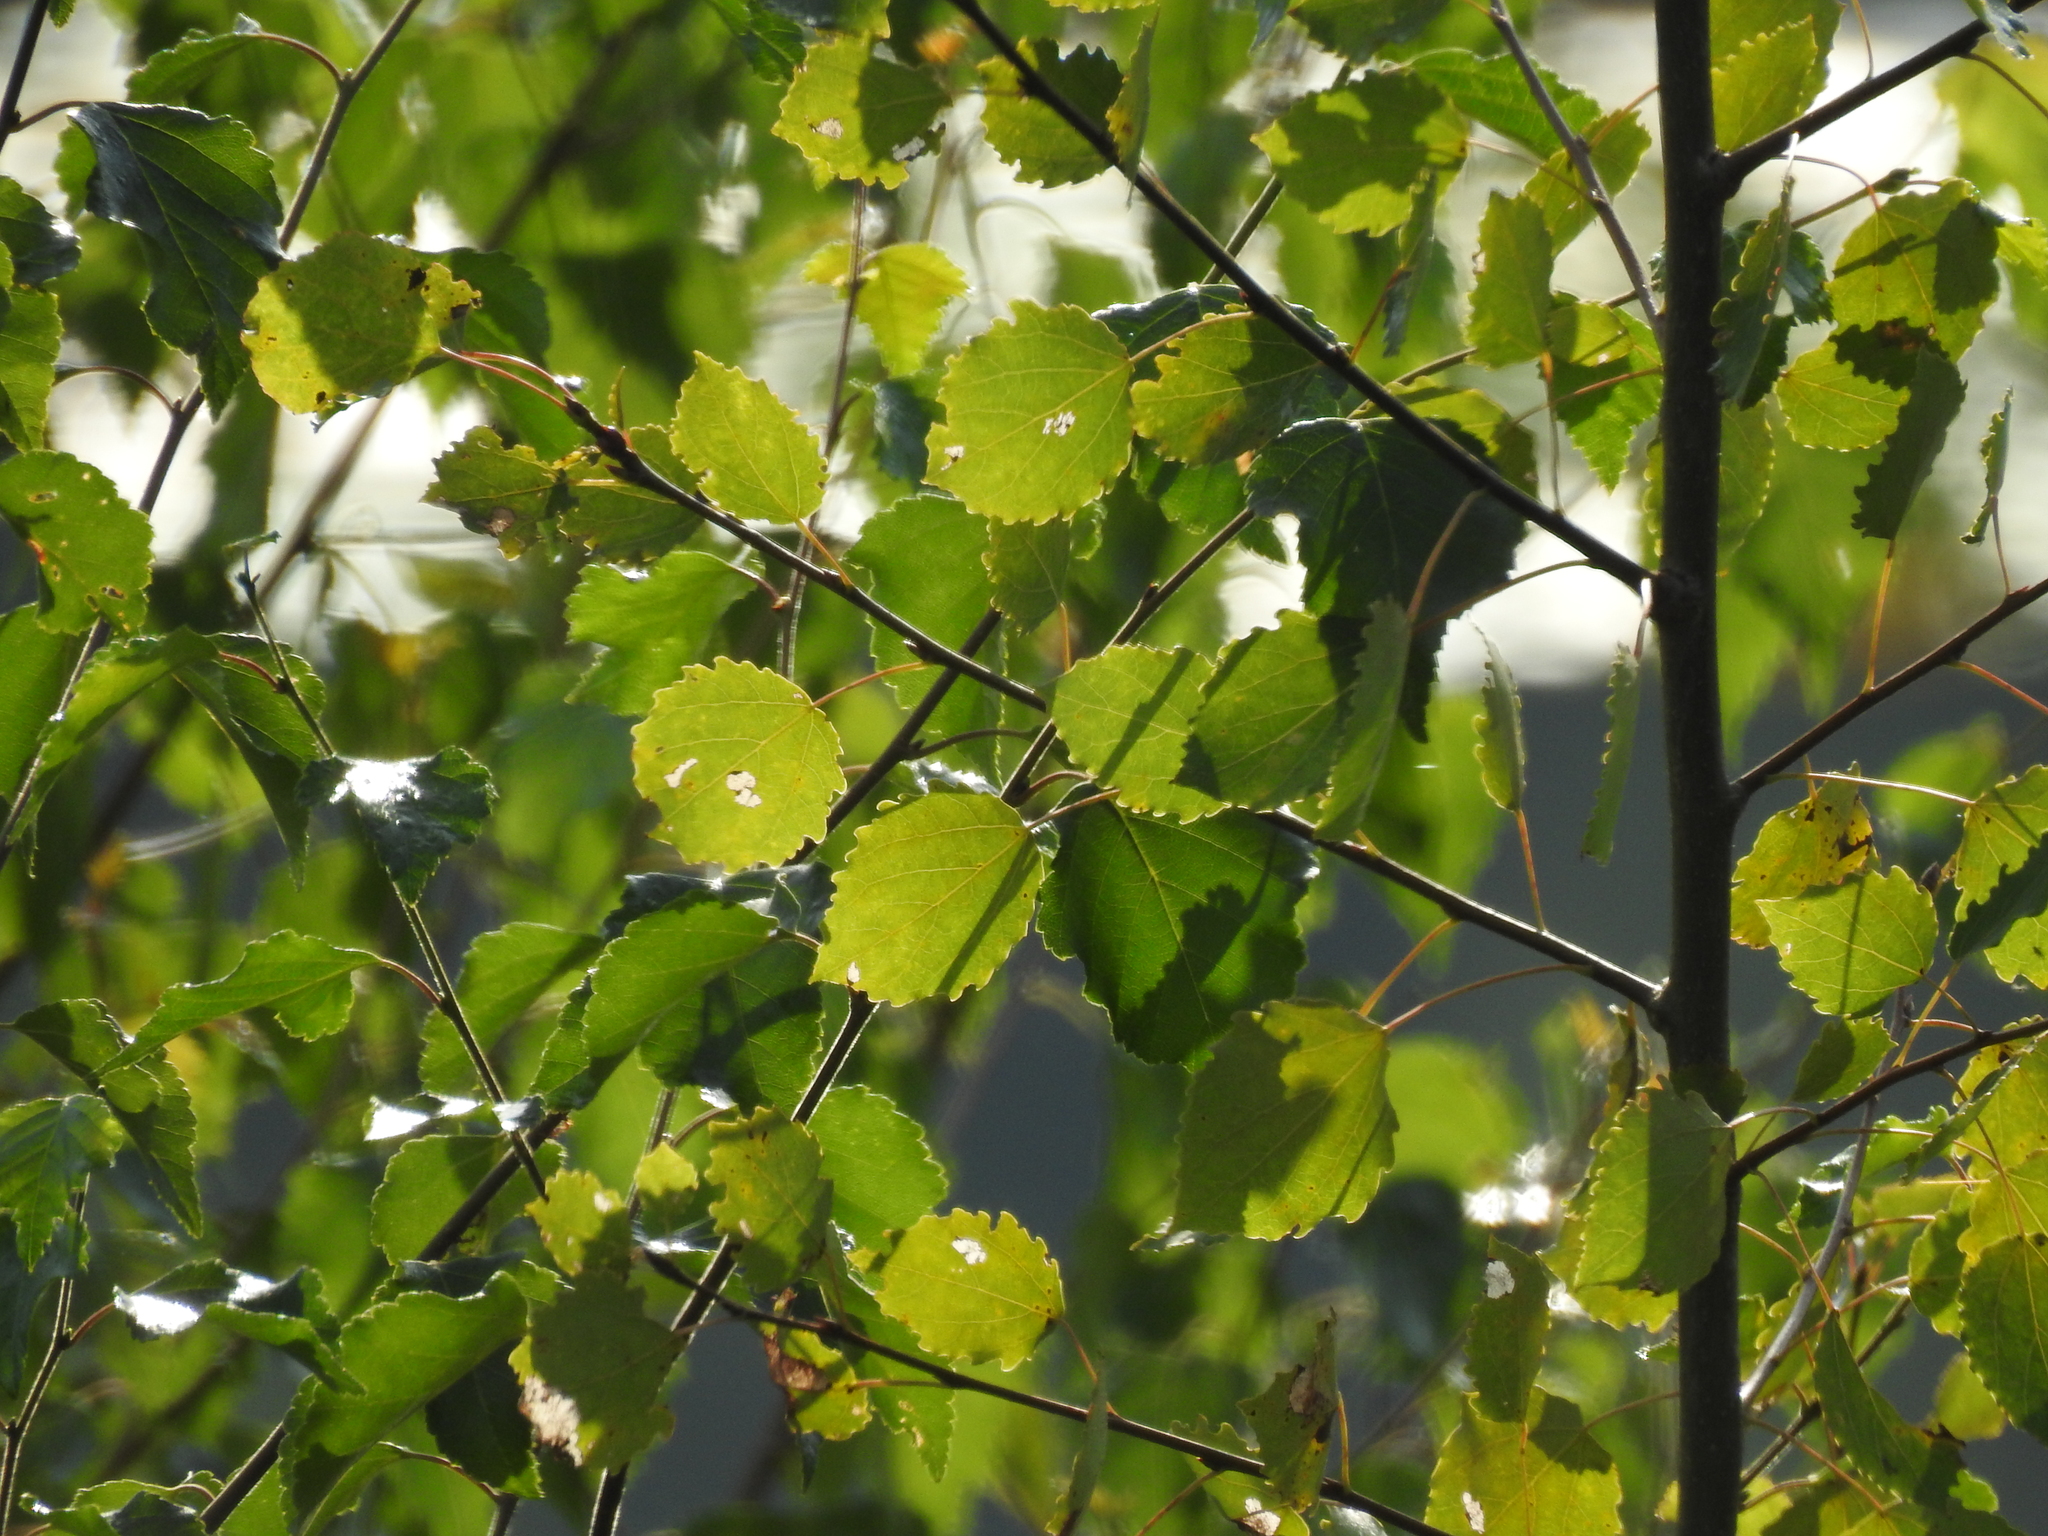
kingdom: Plantae
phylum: Tracheophyta
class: Magnoliopsida
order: Malpighiales
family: Salicaceae
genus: Populus
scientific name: Populus tremula
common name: European aspen
